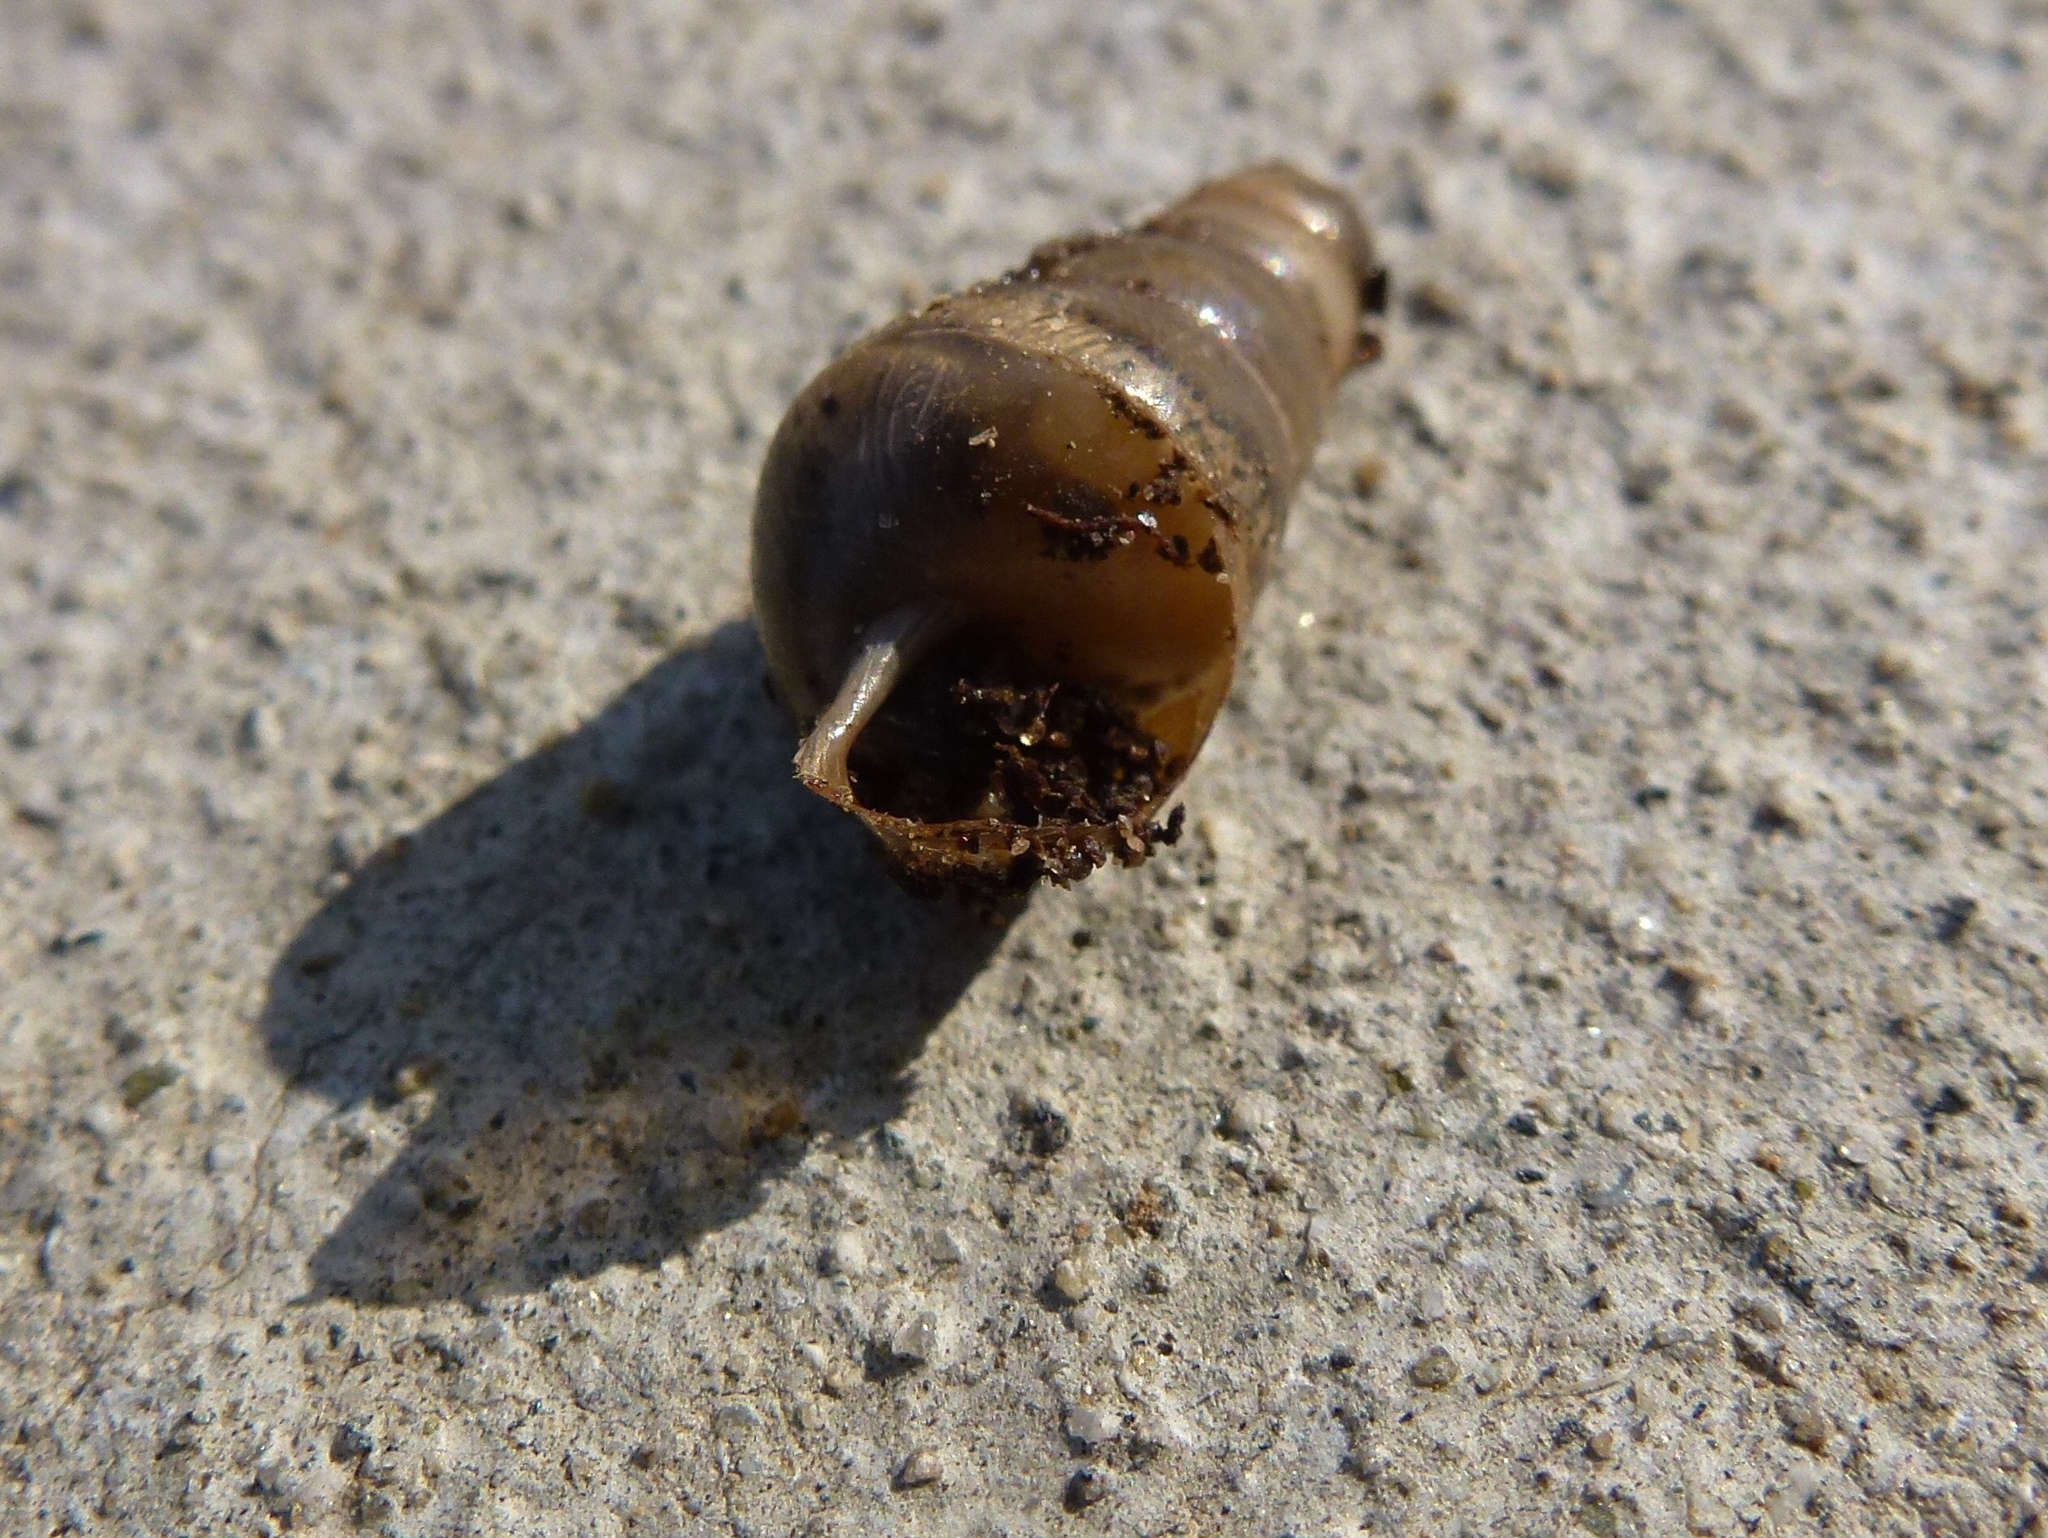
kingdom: Animalia
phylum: Mollusca
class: Gastropoda
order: Stylommatophora
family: Achatinidae
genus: Rumina
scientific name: Rumina decollata
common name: Decollate snail
